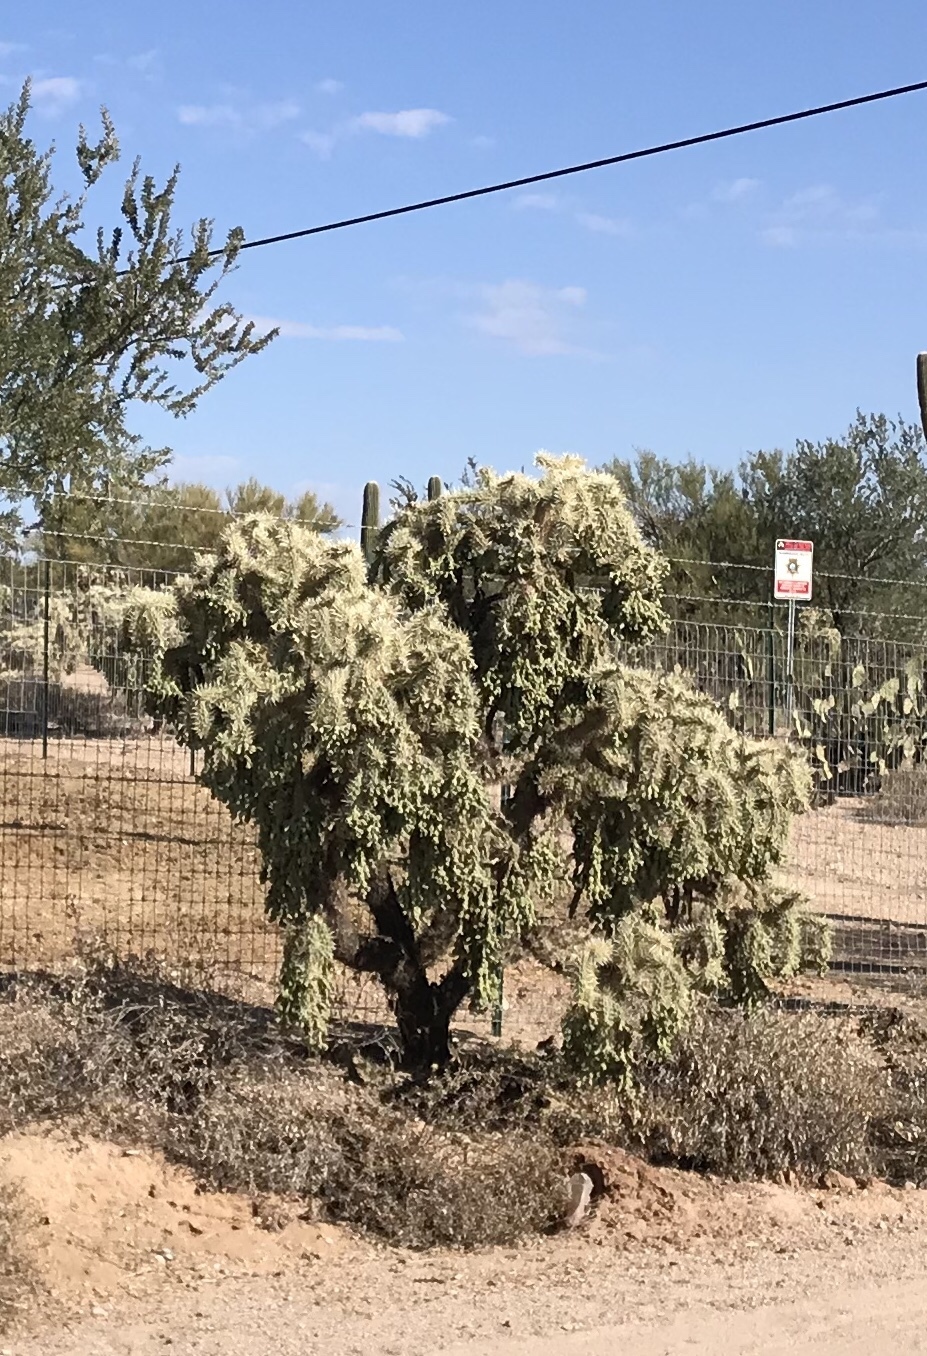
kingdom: Plantae
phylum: Tracheophyta
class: Magnoliopsida
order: Caryophyllales
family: Cactaceae
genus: Cylindropuntia
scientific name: Cylindropuntia fulgida
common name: Jumping cholla
